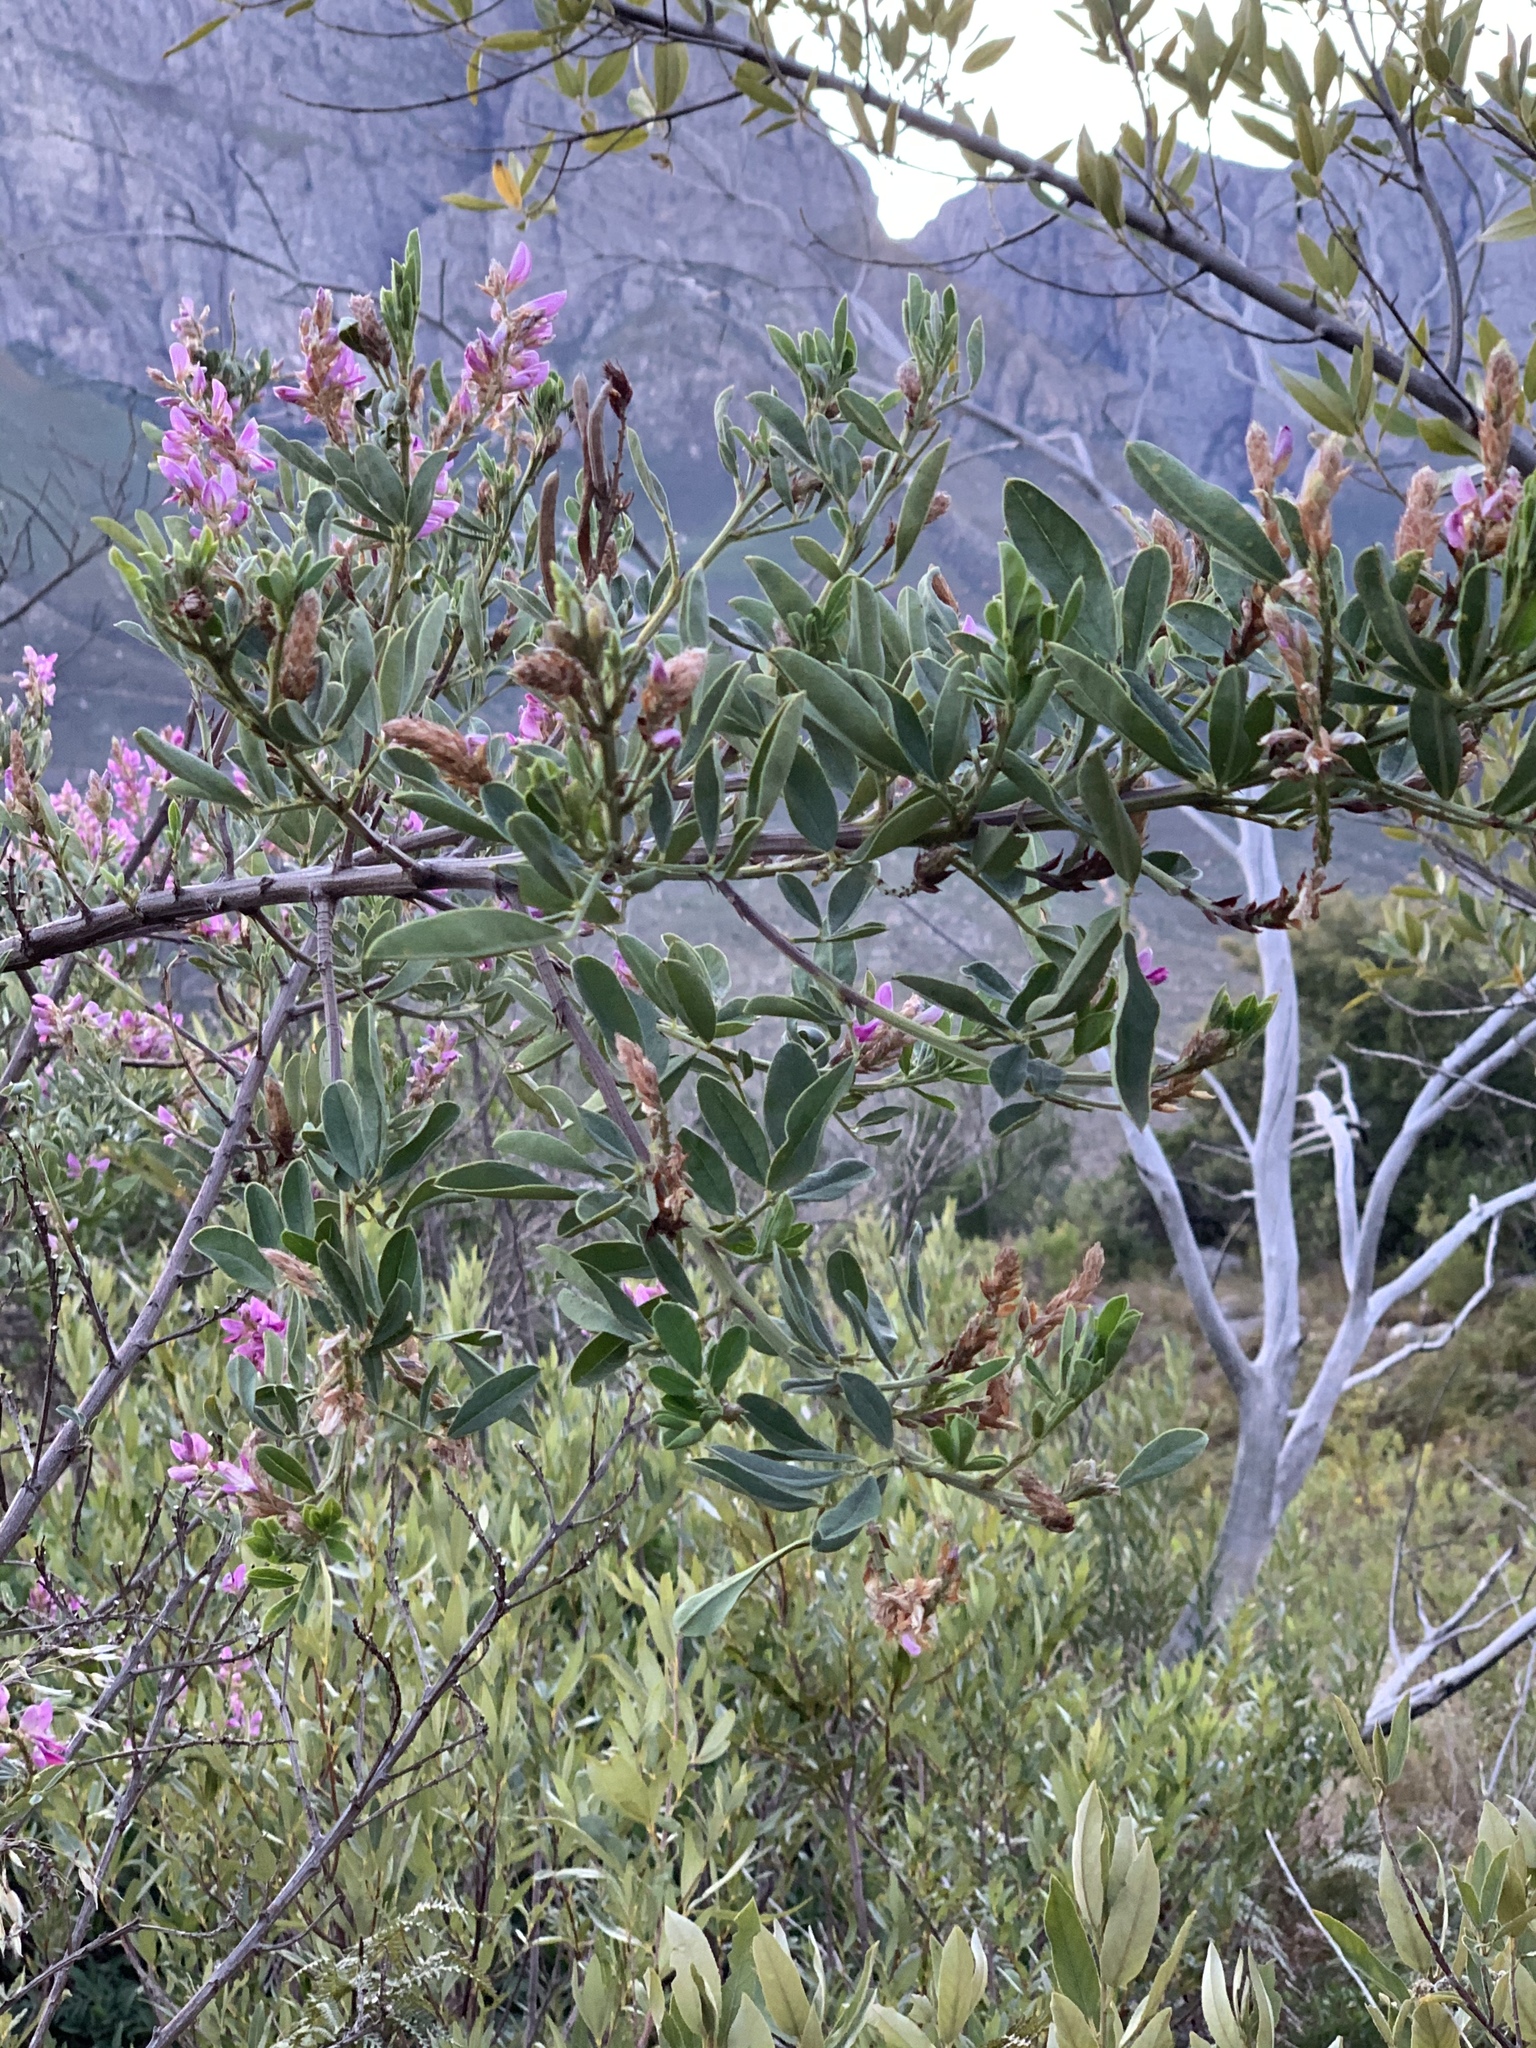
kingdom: Plantae
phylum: Tracheophyta
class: Magnoliopsida
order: Fabales
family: Fabaceae
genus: Indigofera
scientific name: Indigofera cytisoides
